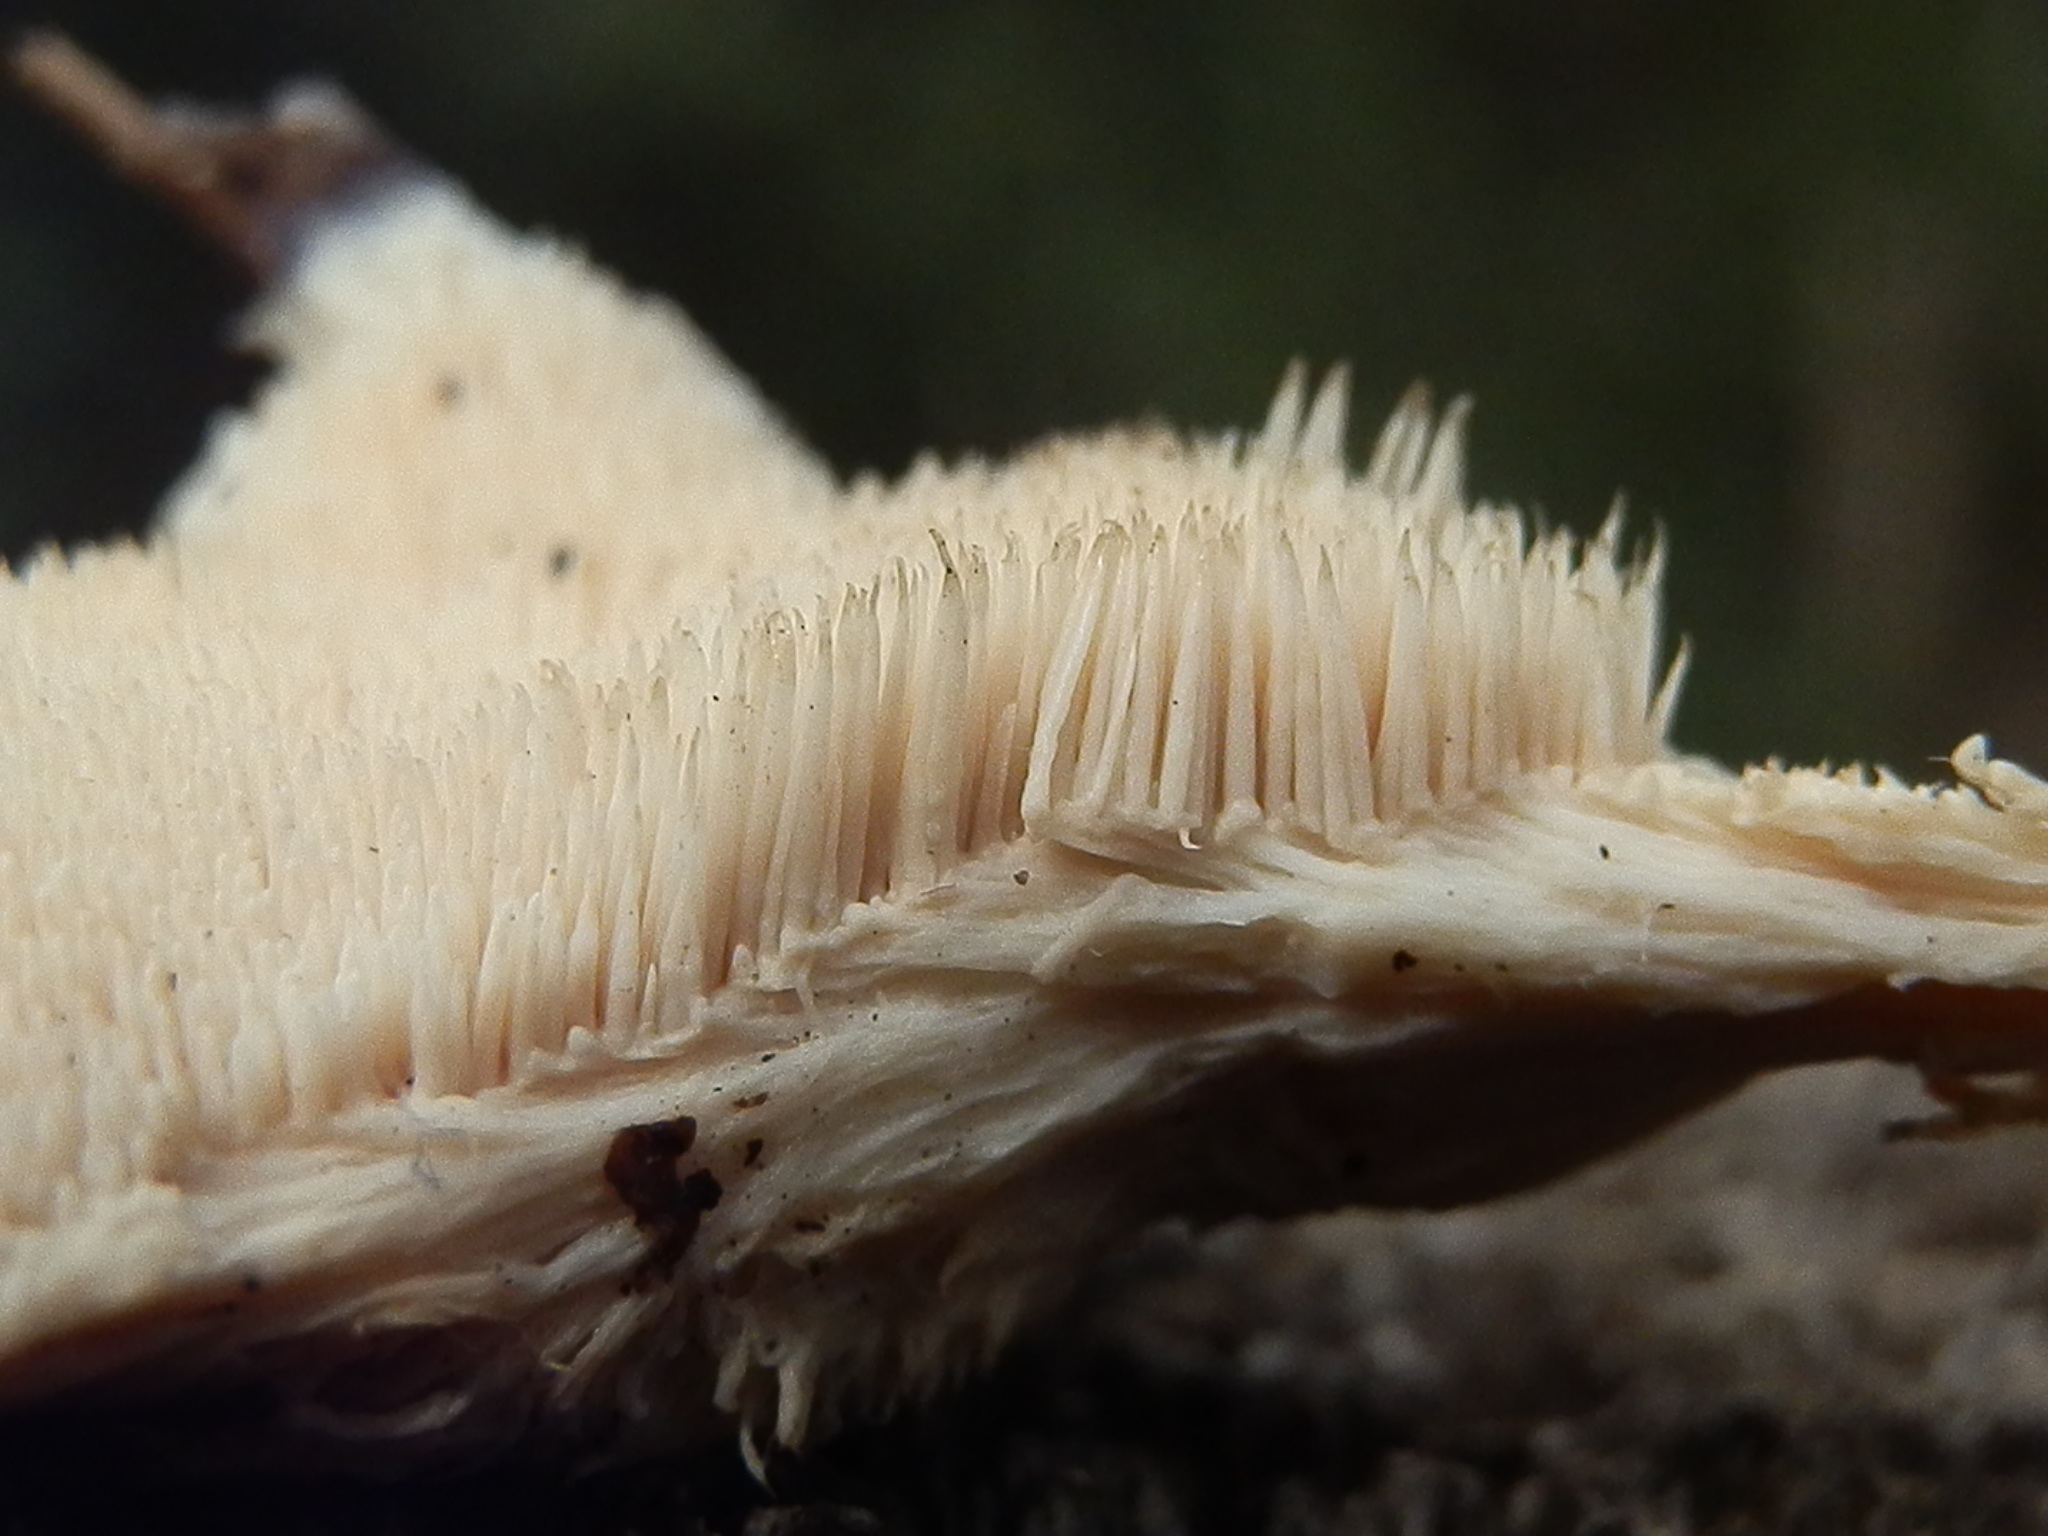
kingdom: Fungi
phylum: Basidiomycota
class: Agaricomycetes
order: Polyporales
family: Meruliaceae
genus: Donkia
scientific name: Donkia pulcherrima
